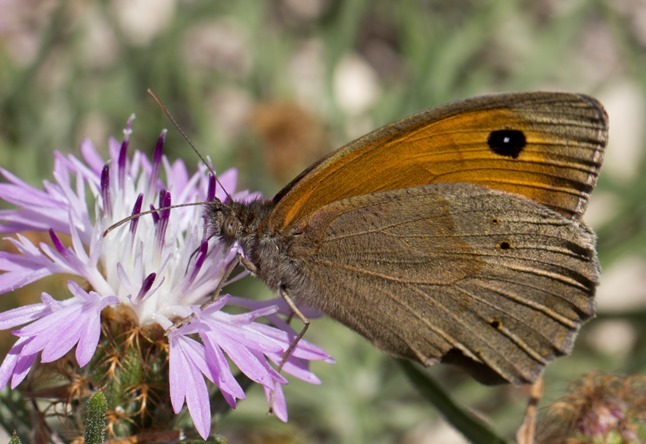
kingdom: Animalia
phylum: Arthropoda
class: Insecta
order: Lepidoptera
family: Nymphalidae
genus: Maniola
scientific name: Maniola jurtina
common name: Meadow brown
